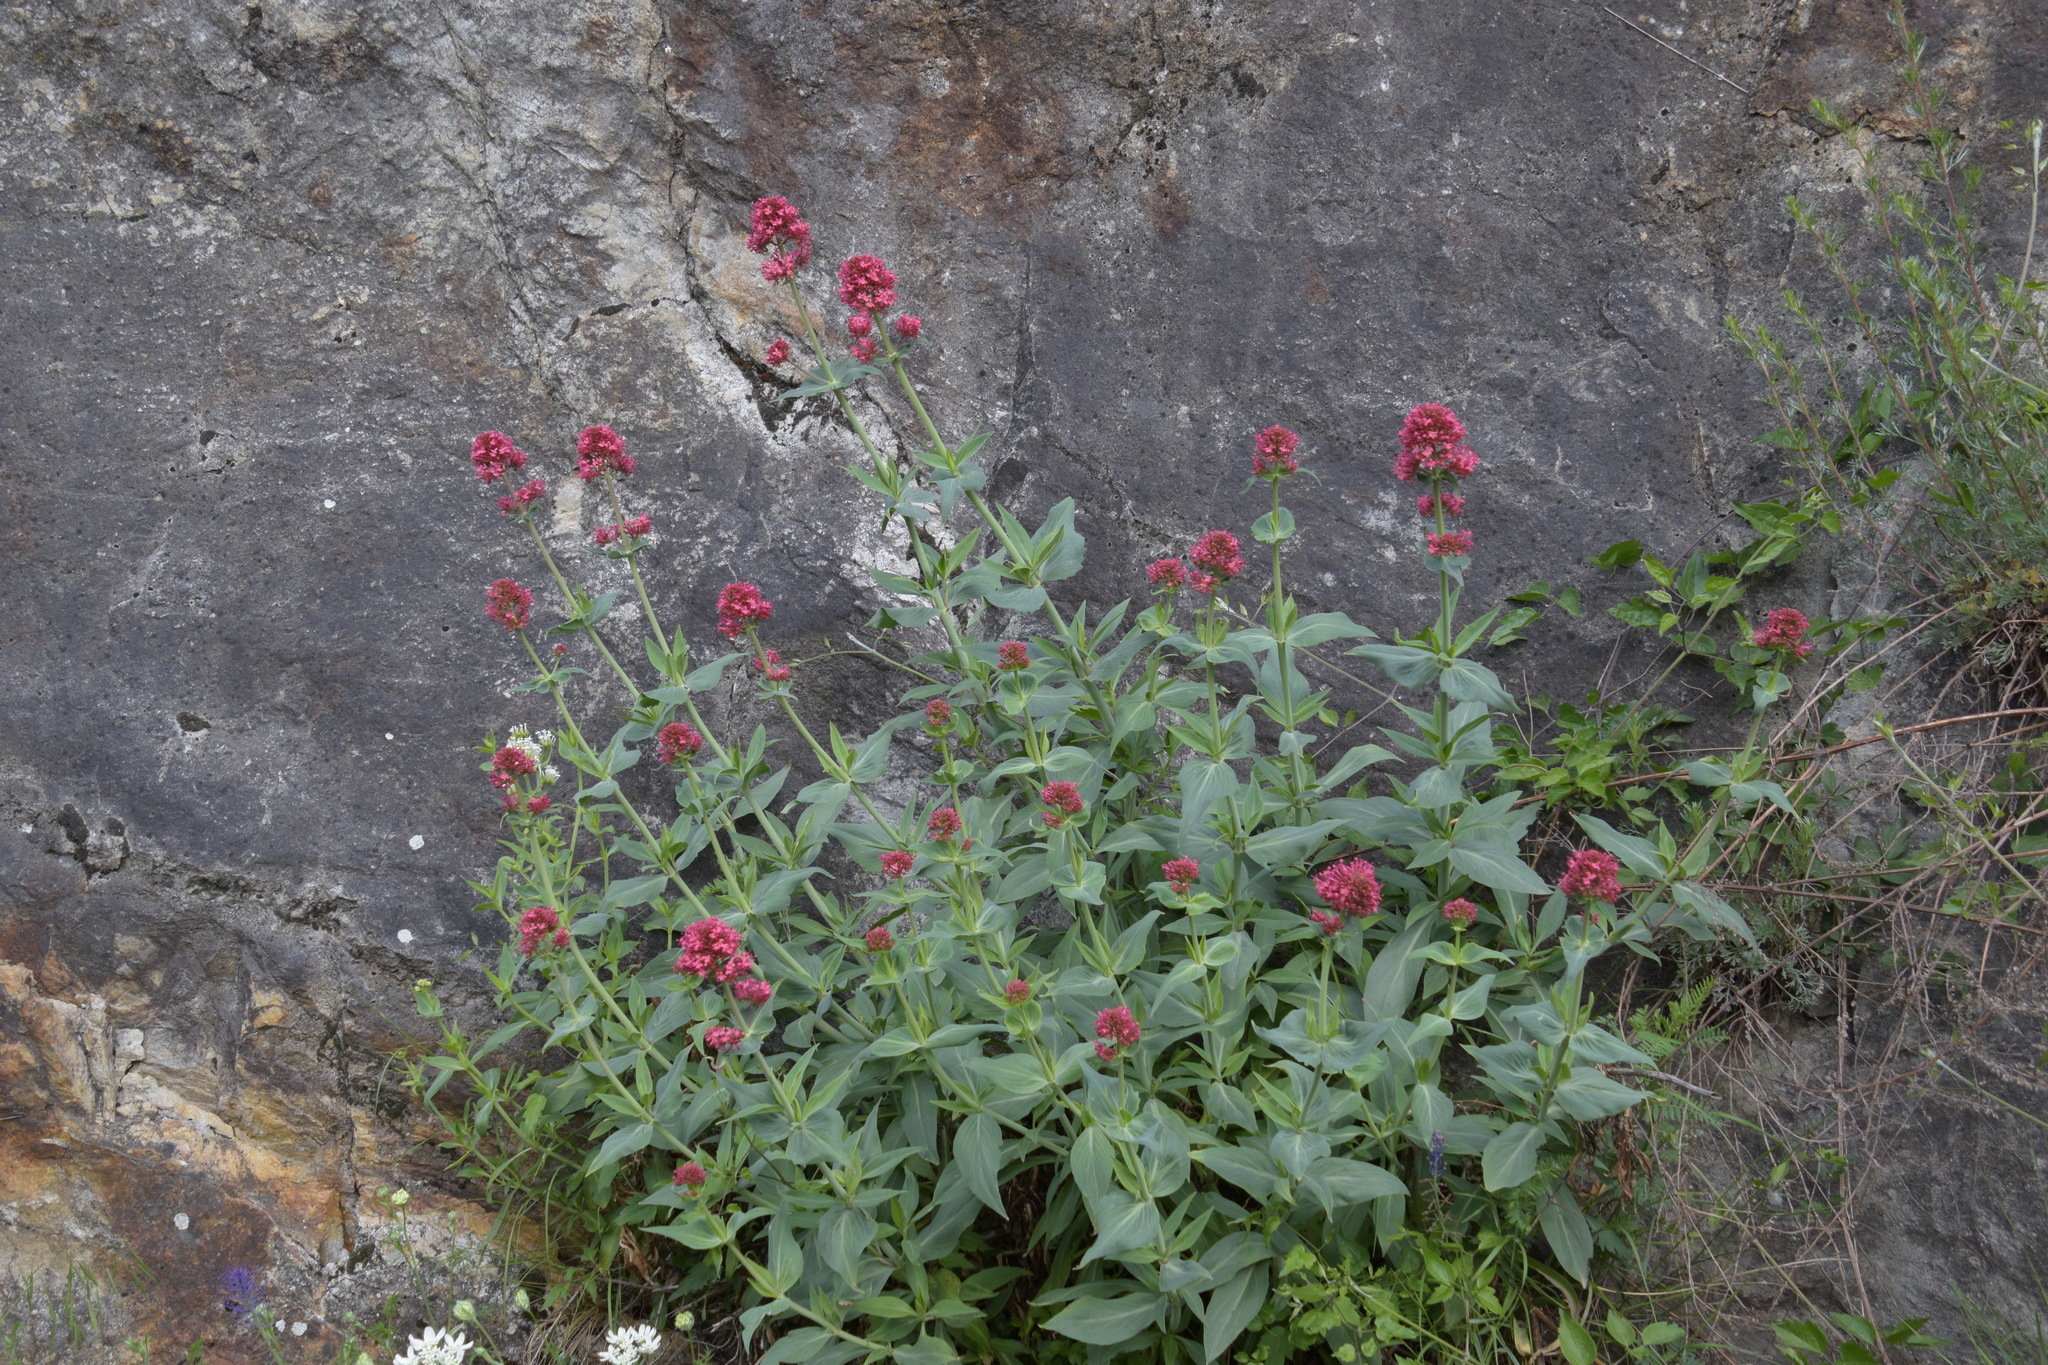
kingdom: Plantae
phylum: Tracheophyta
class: Magnoliopsida
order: Dipsacales
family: Caprifoliaceae
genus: Centranthus
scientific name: Centranthus ruber
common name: Red valerian
